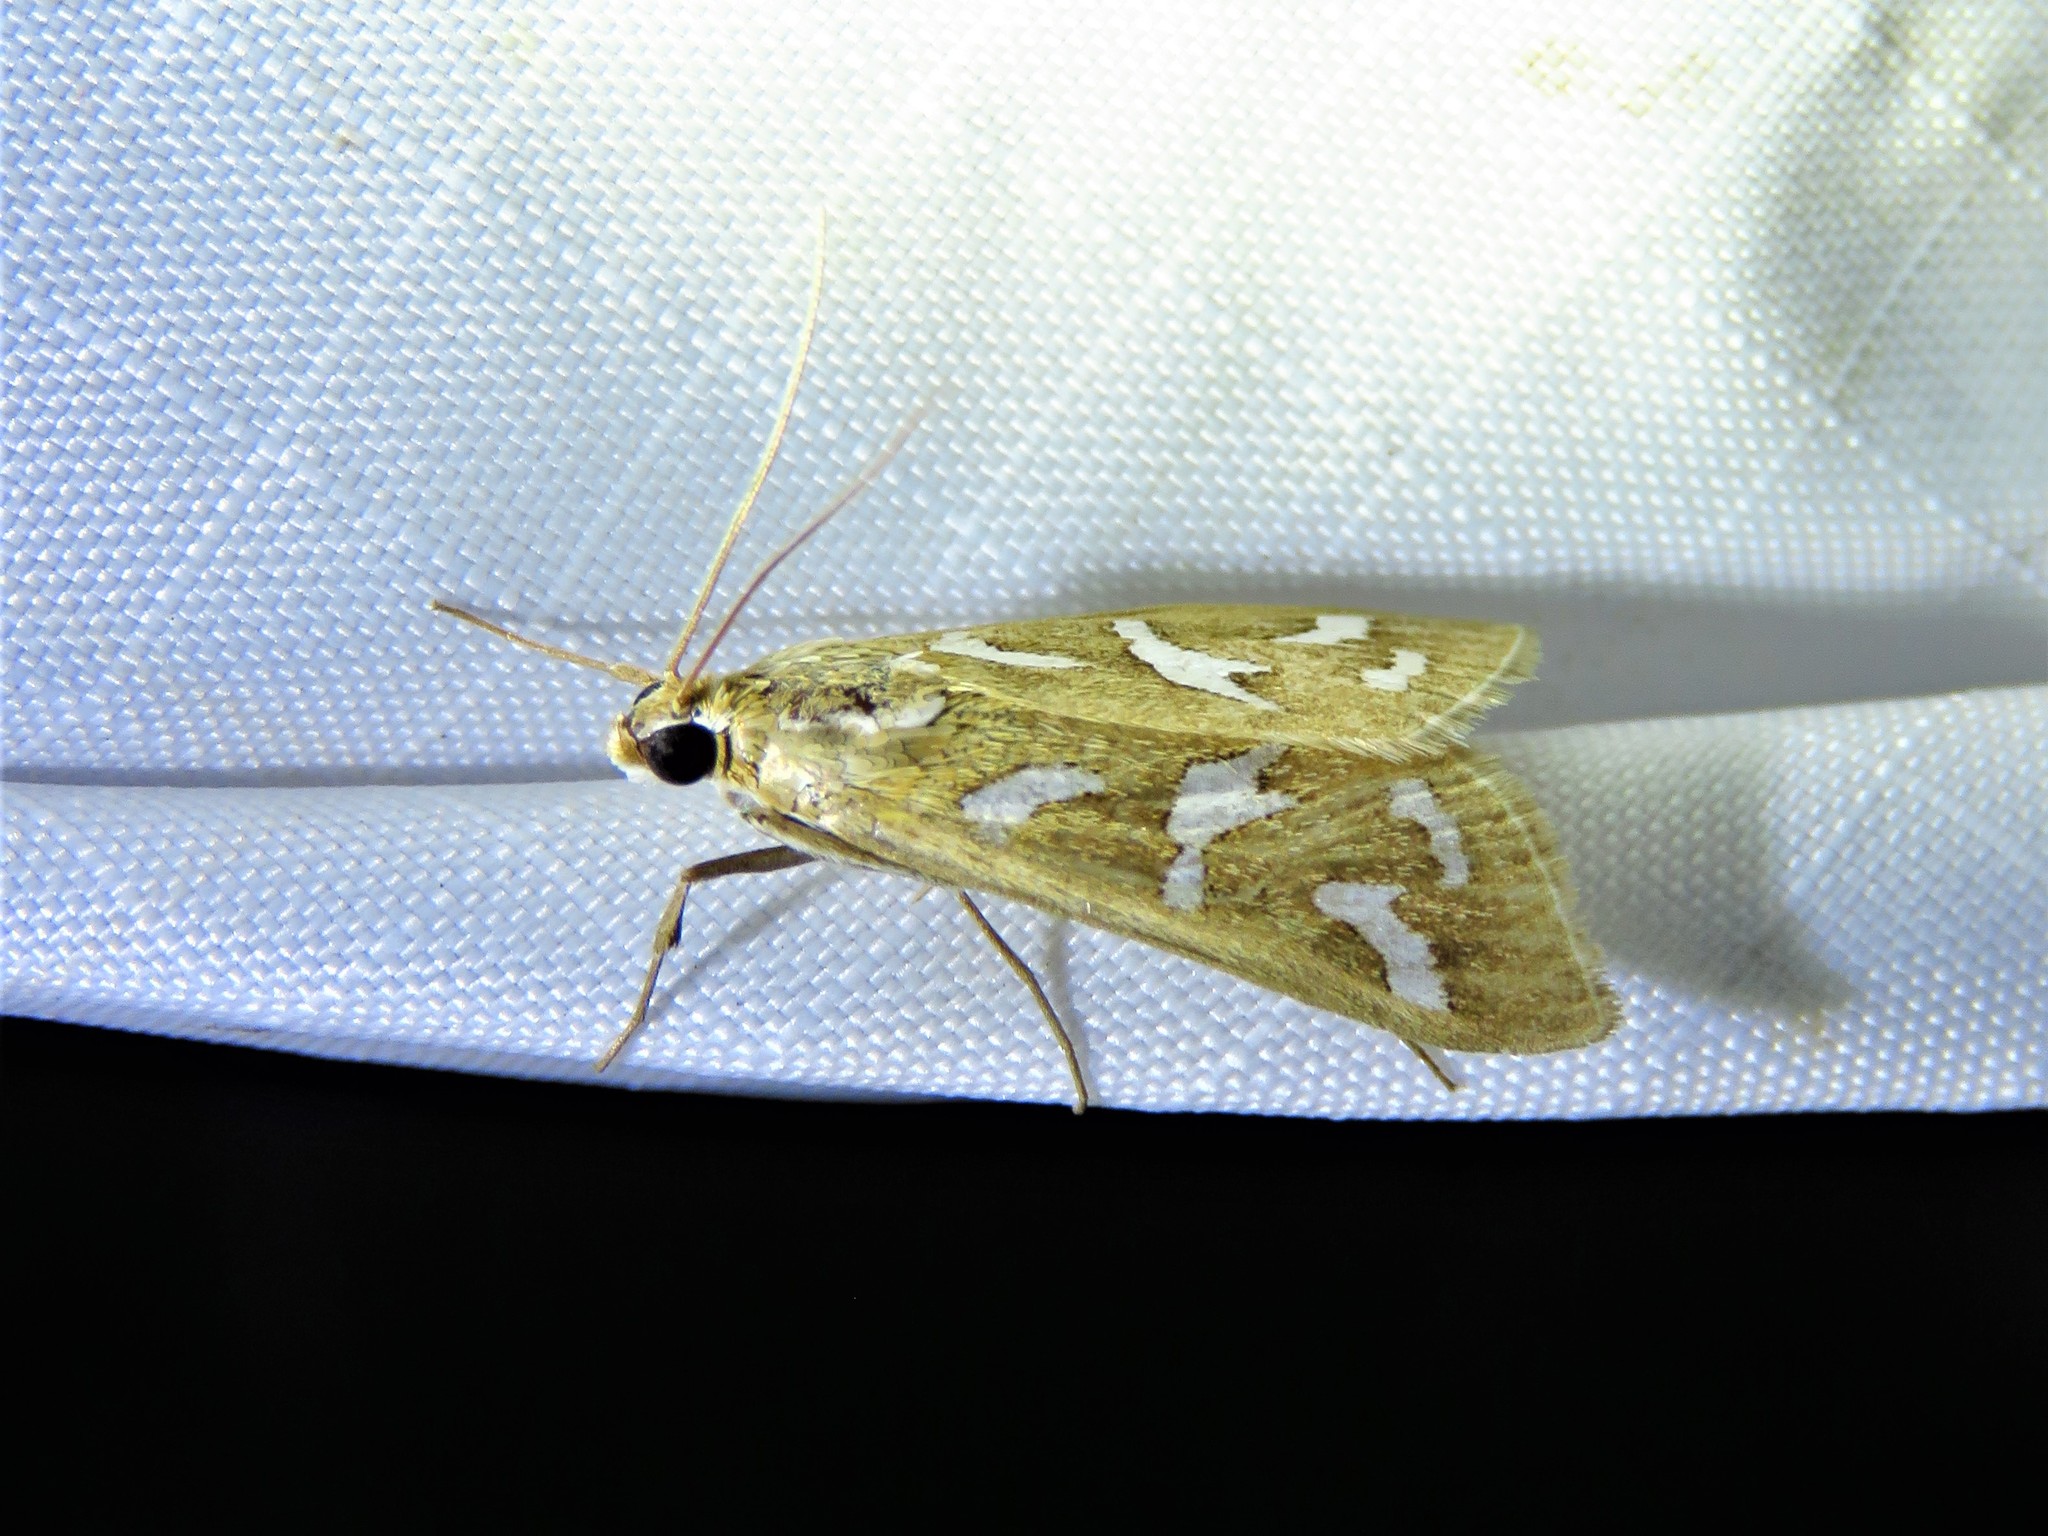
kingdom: Animalia
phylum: Arthropoda
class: Insecta
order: Lepidoptera
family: Crambidae
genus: Diastictis
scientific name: Diastictis fracturalis
